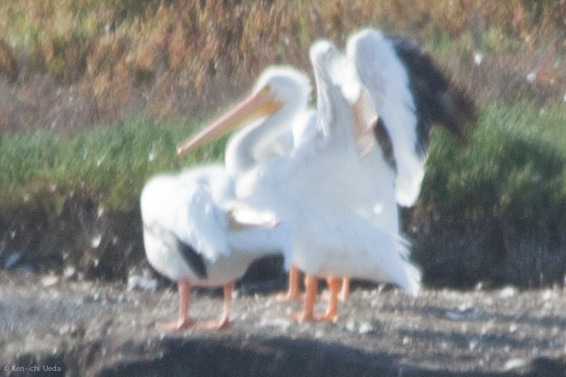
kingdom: Animalia
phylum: Chordata
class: Aves
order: Pelecaniformes
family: Pelecanidae
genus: Pelecanus
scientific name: Pelecanus erythrorhynchos
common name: American white pelican
